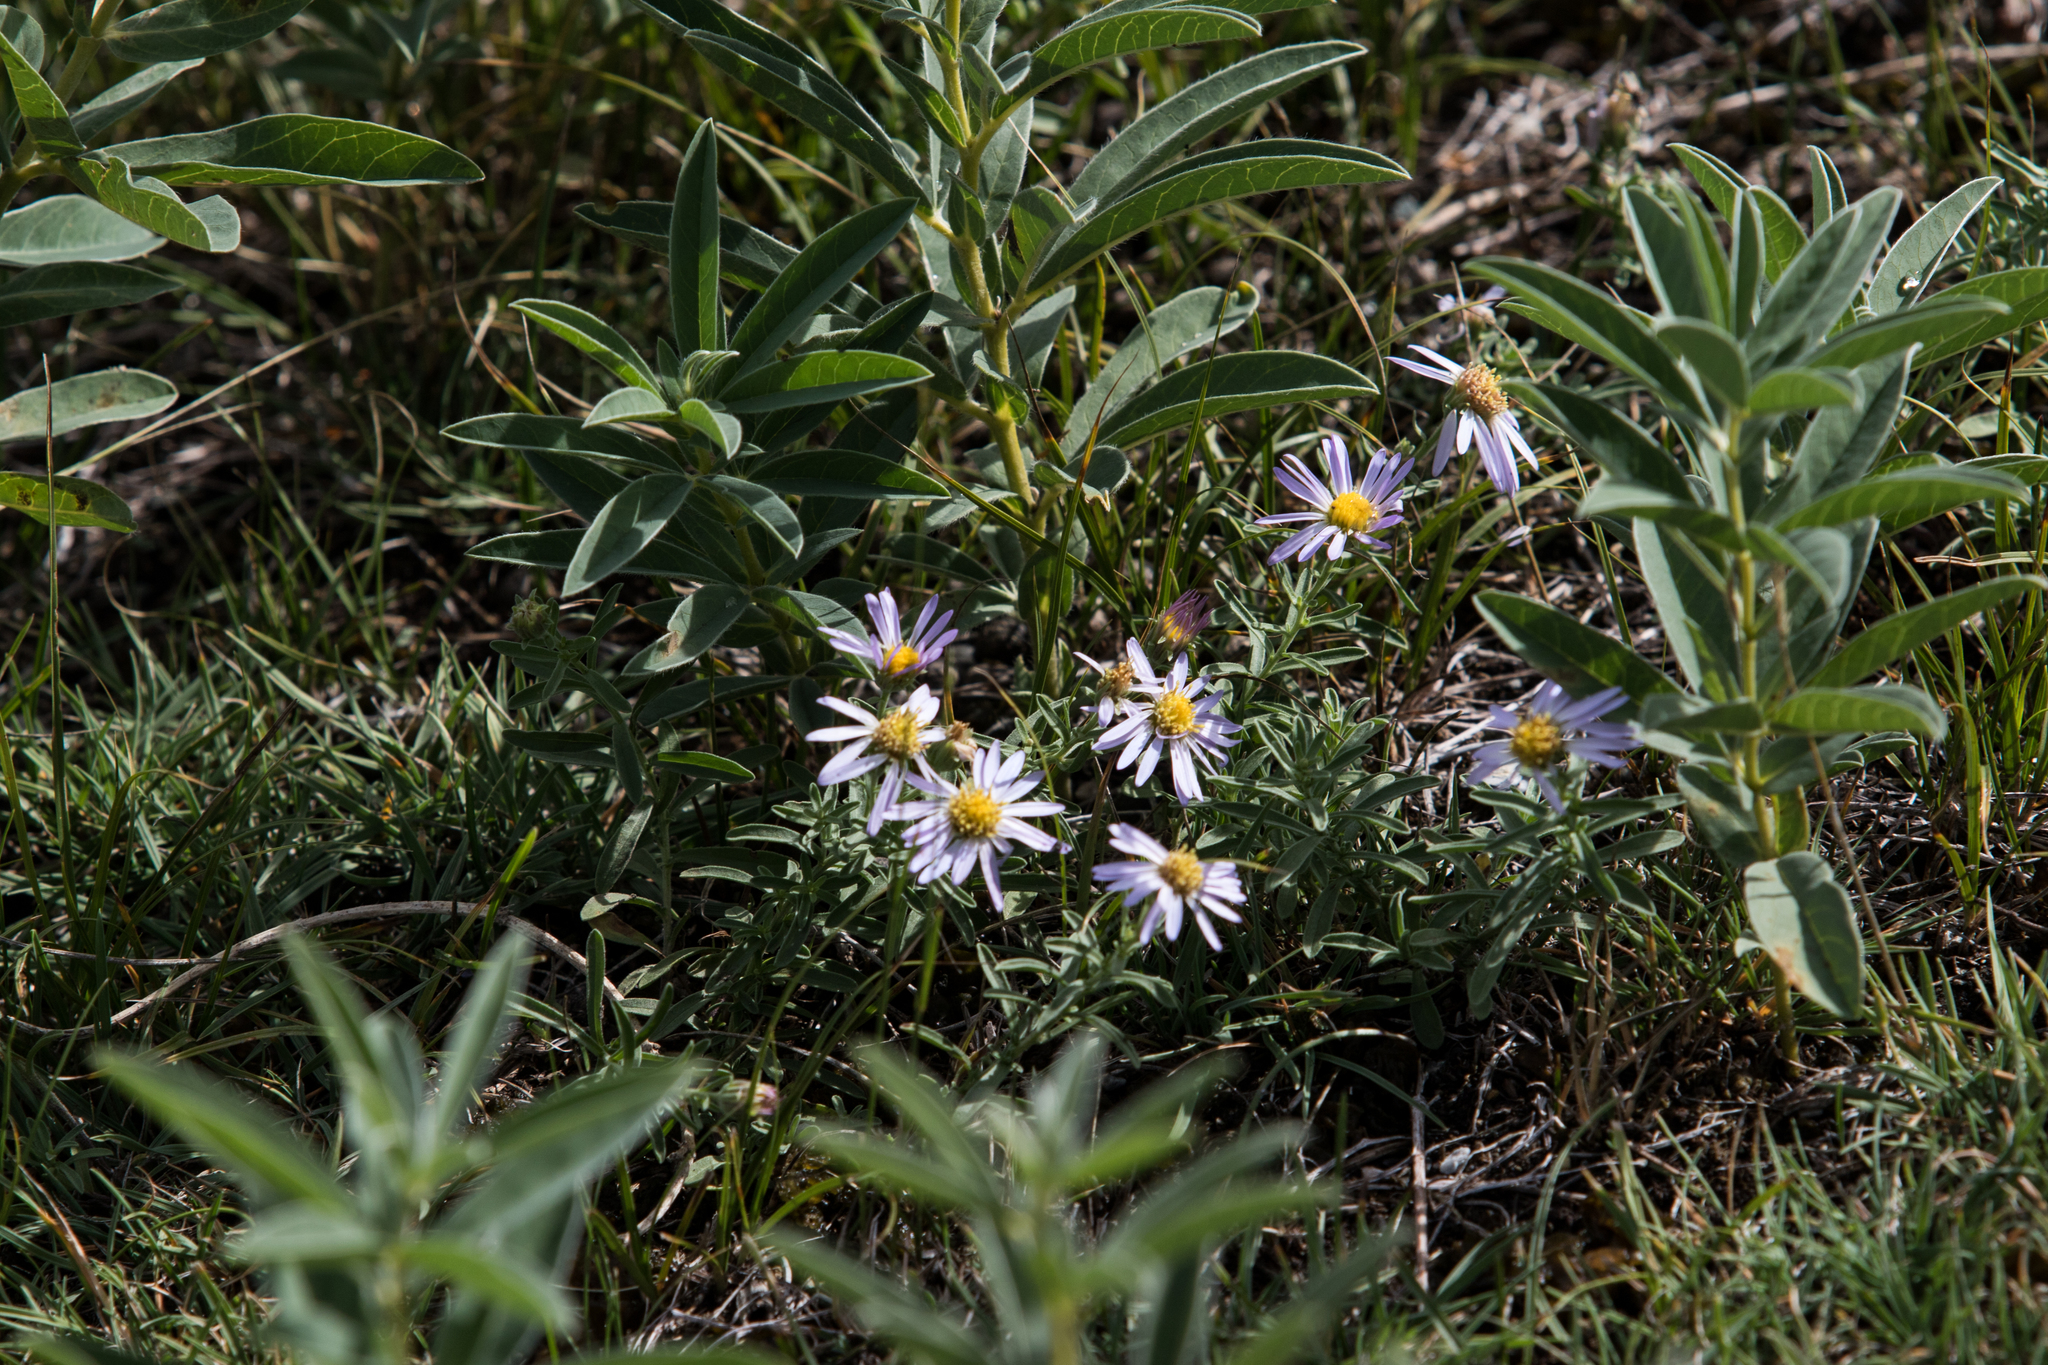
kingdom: Plantae
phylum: Tracheophyta
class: Magnoliopsida
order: Asterales
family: Asteraceae
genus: Heteropappus
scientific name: Heteropappus altaicus
